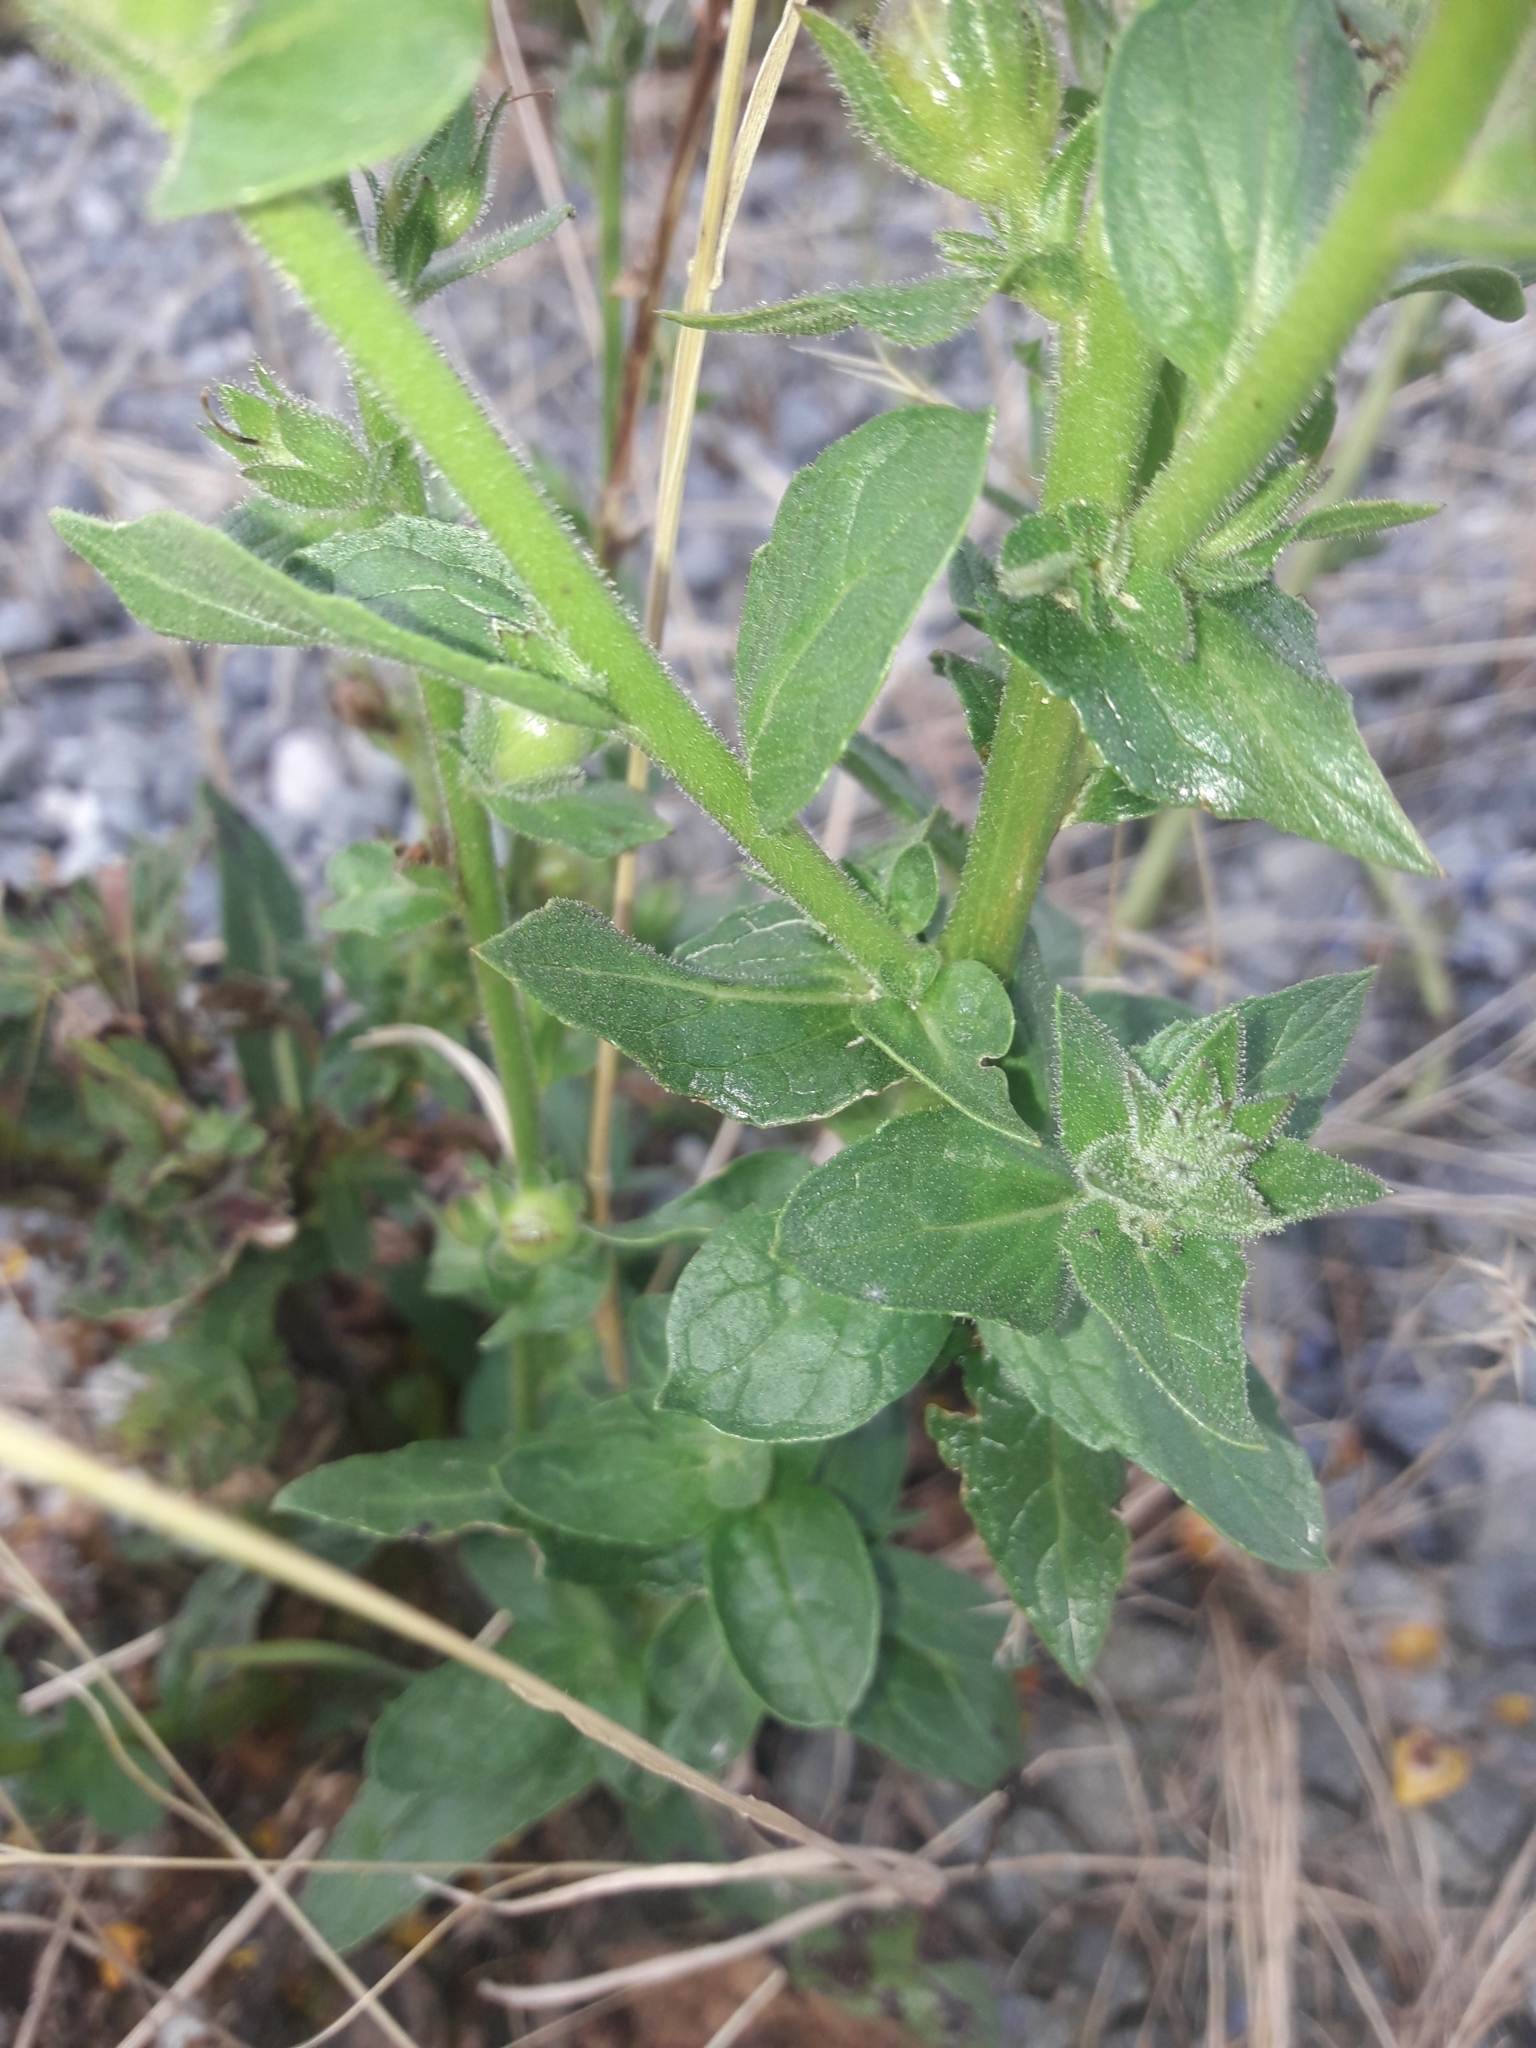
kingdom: Plantae
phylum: Tracheophyta
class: Magnoliopsida
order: Lamiales
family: Scrophulariaceae
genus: Verbascum
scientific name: Verbascum virgatum
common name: Twiggy mullein
